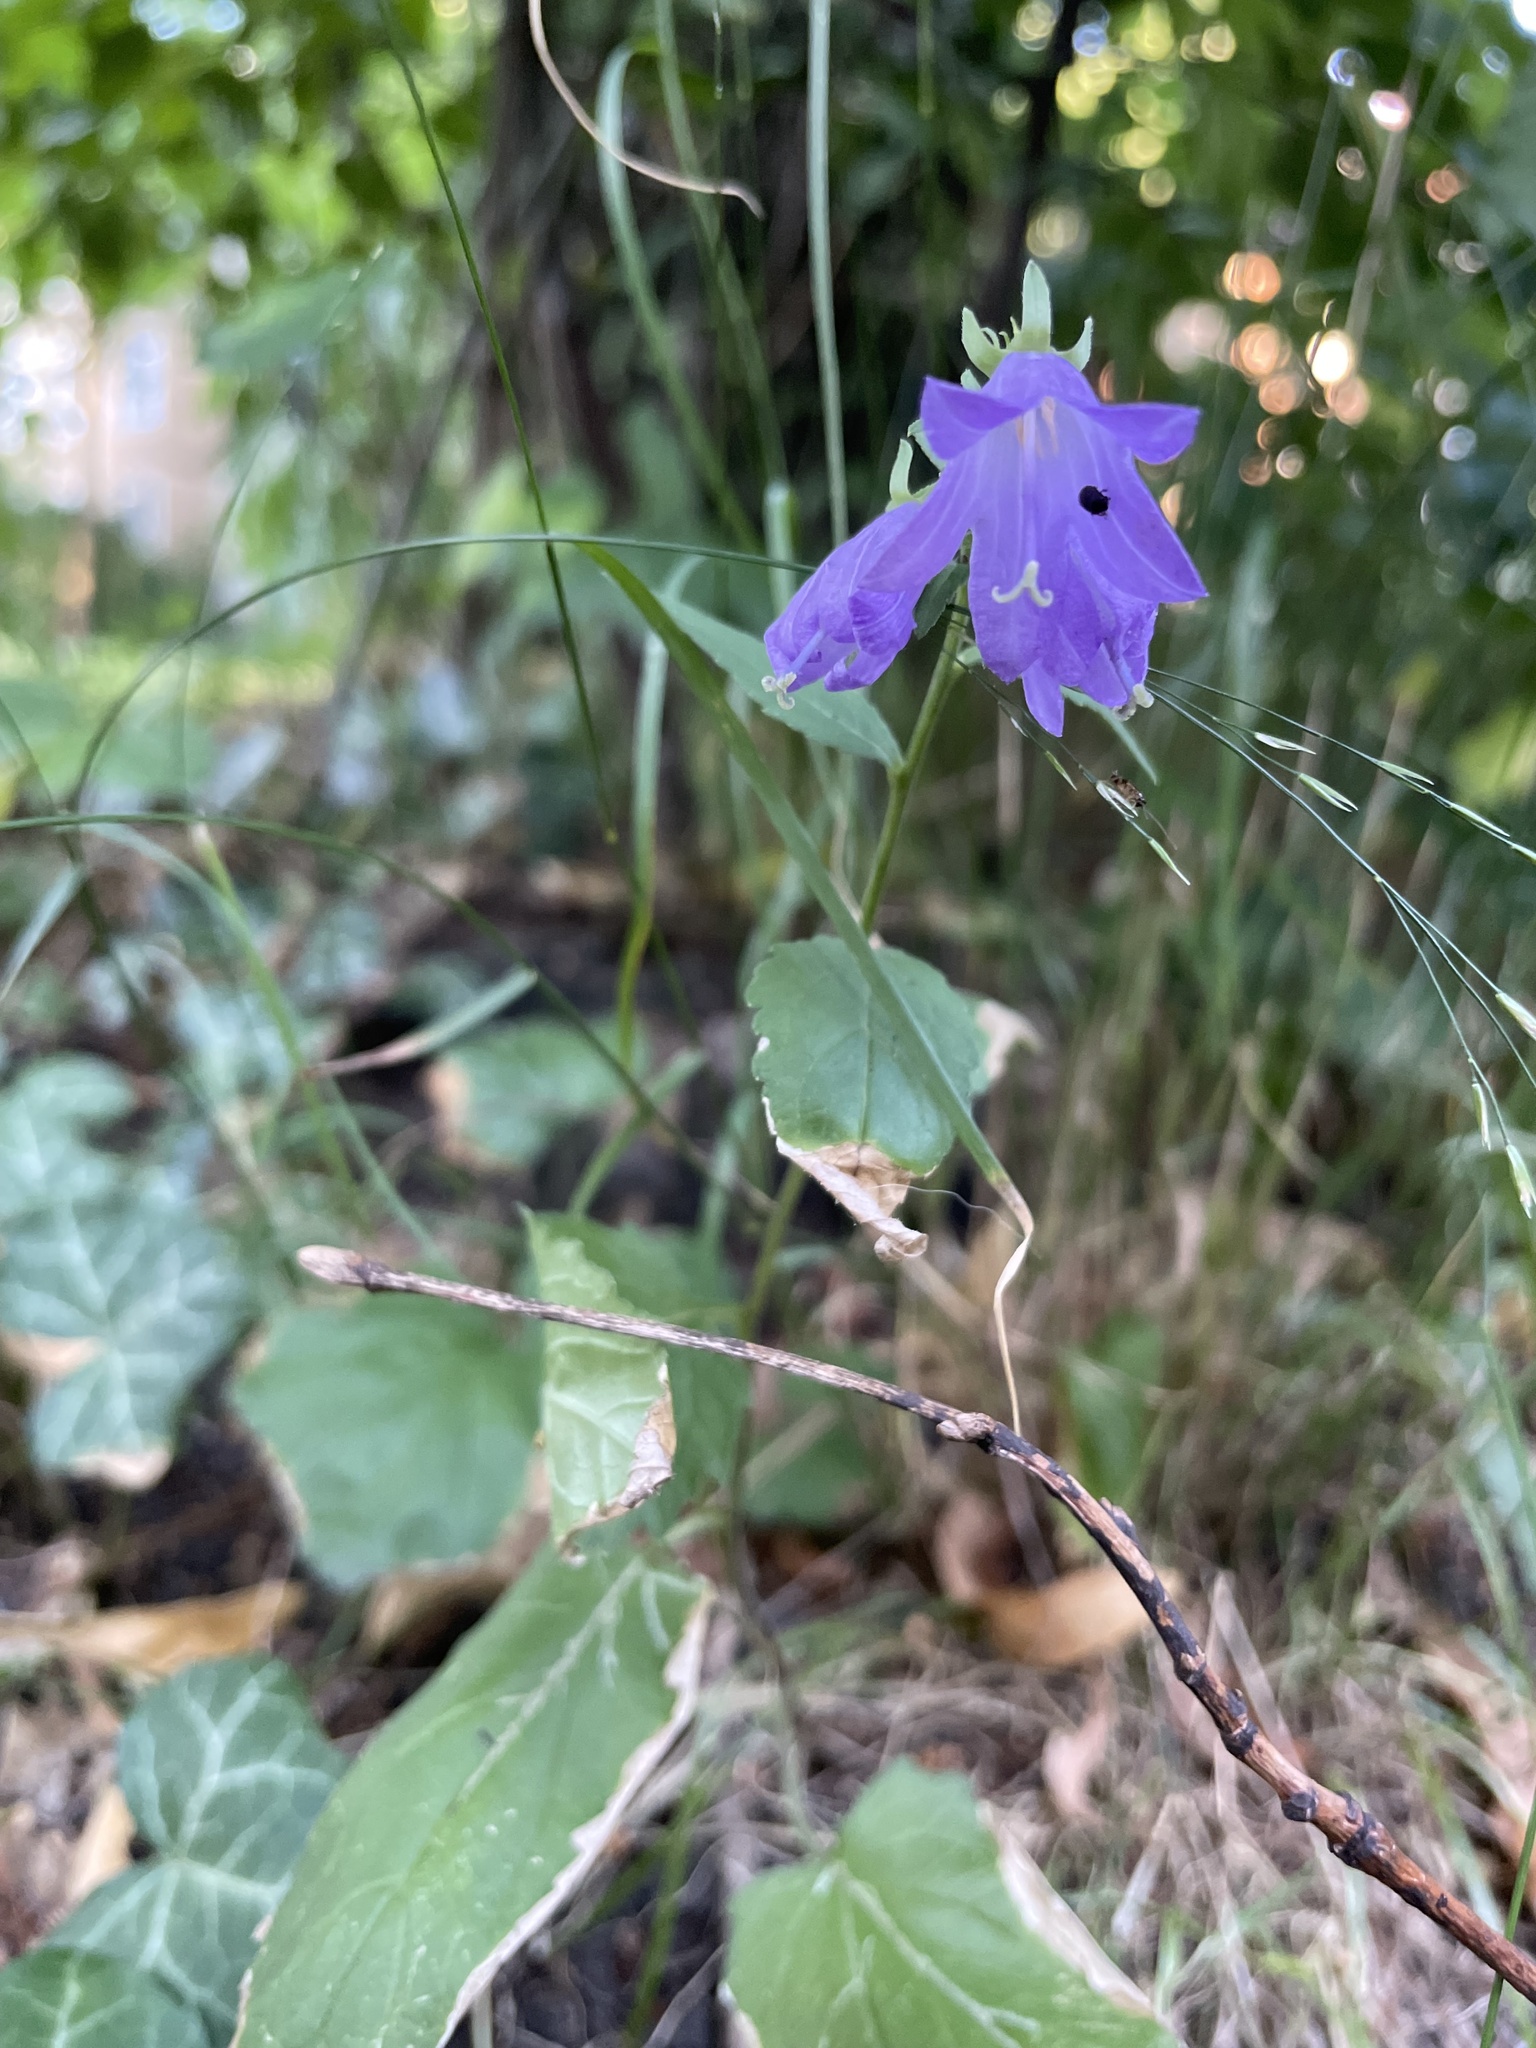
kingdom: Plantae
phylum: Tracheophyta
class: Magnoliopsida
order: Asterales
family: Campanulaceae
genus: Campanula
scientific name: Campanula rapunculoides
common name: Creeping bellflower
